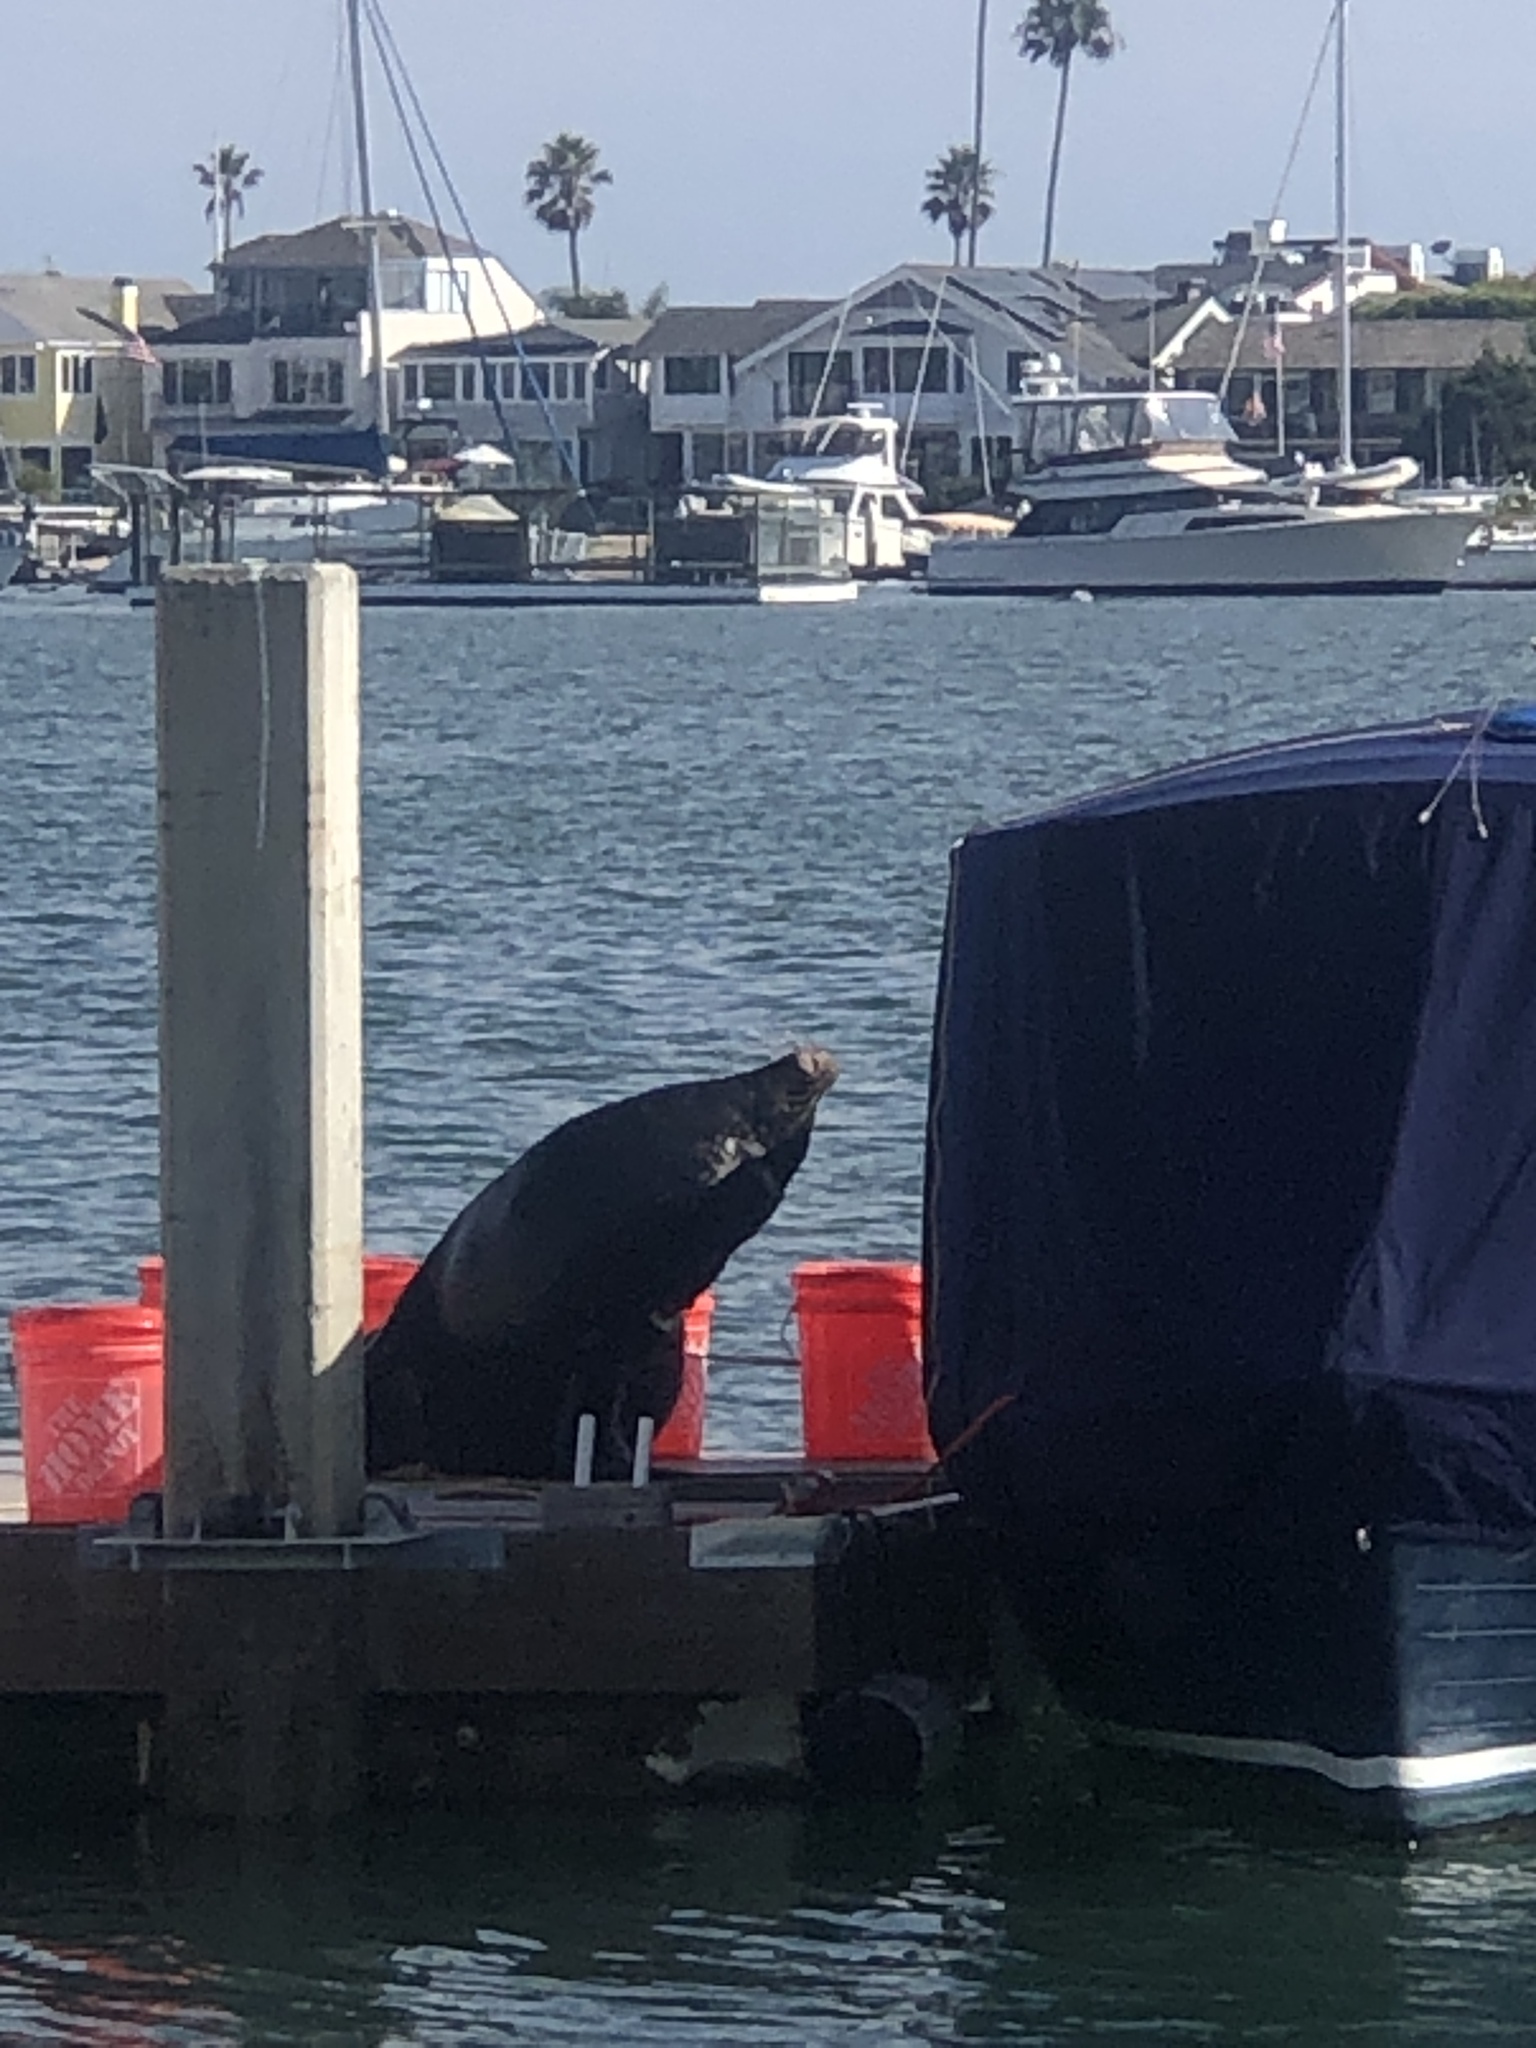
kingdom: Animalia
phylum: Chordata
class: Mammalia
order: Carnivora
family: Otariidae
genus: Zalophus
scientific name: Zalophus californianus
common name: California sea lion
